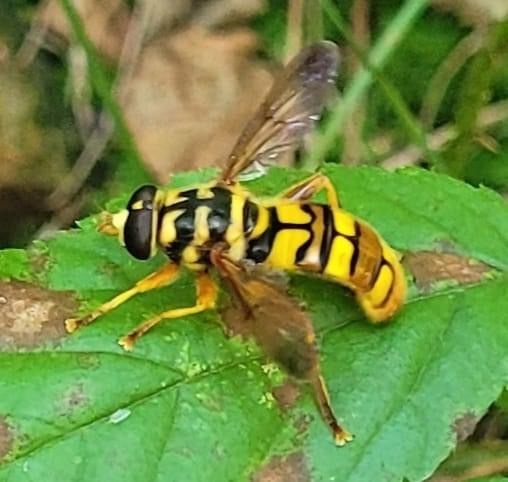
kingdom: Animalia
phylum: Arthropoda
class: Insecta
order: Diptera
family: Syrphidae
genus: Milesia
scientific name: Milesia virginiensis
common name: Virginia giant
